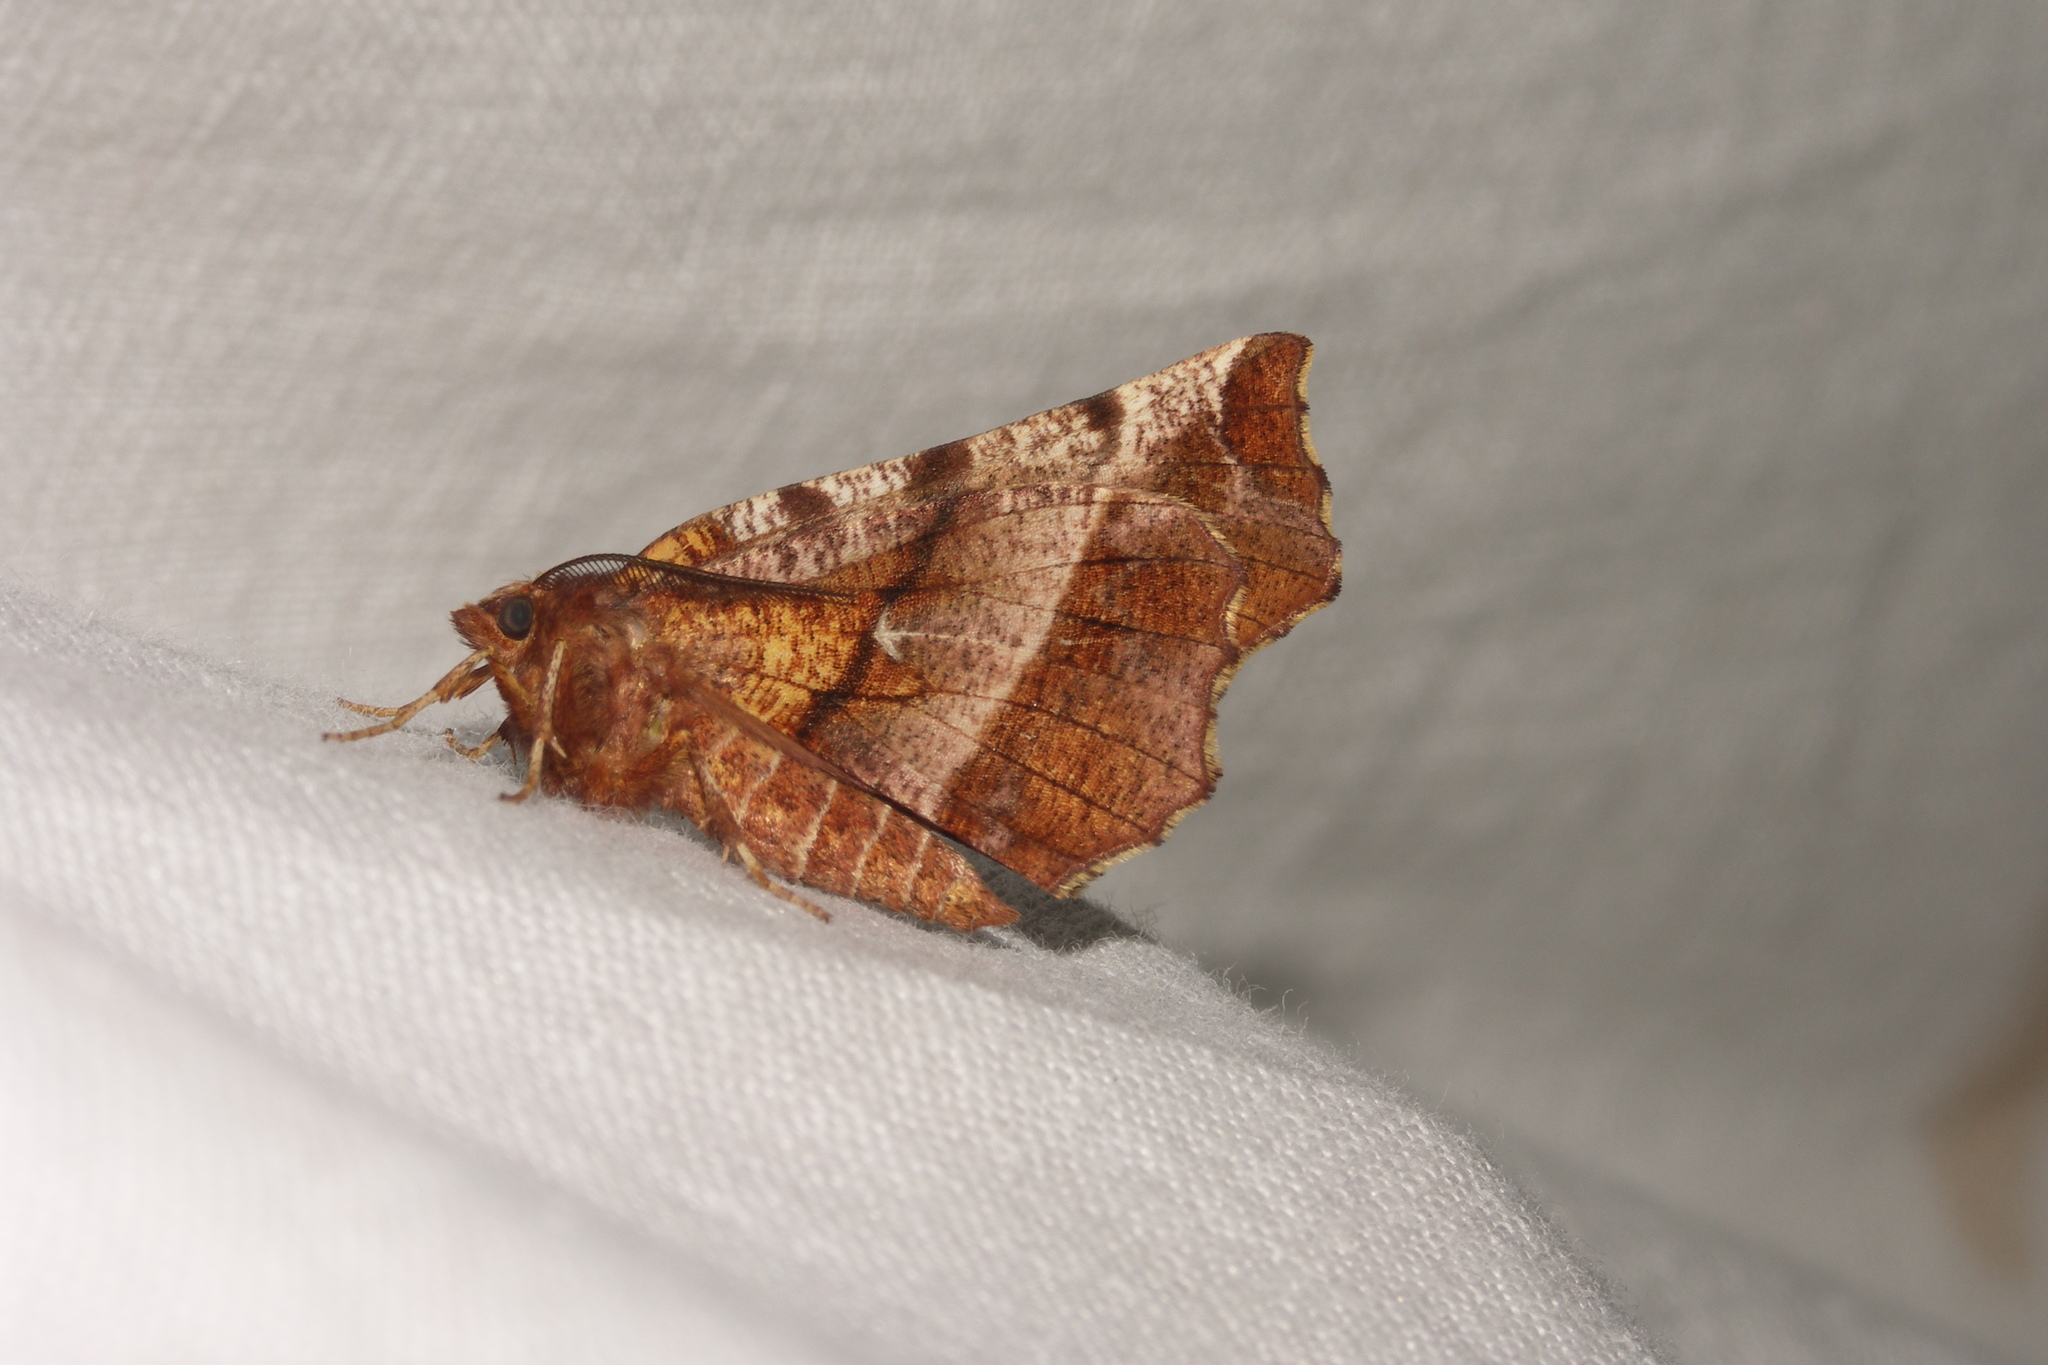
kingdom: Animalia
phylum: Arthropoda
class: Insecta
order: Lepidoptera
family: Geometridae
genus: Selenia
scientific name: Selenia dentaria
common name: Early thorn
